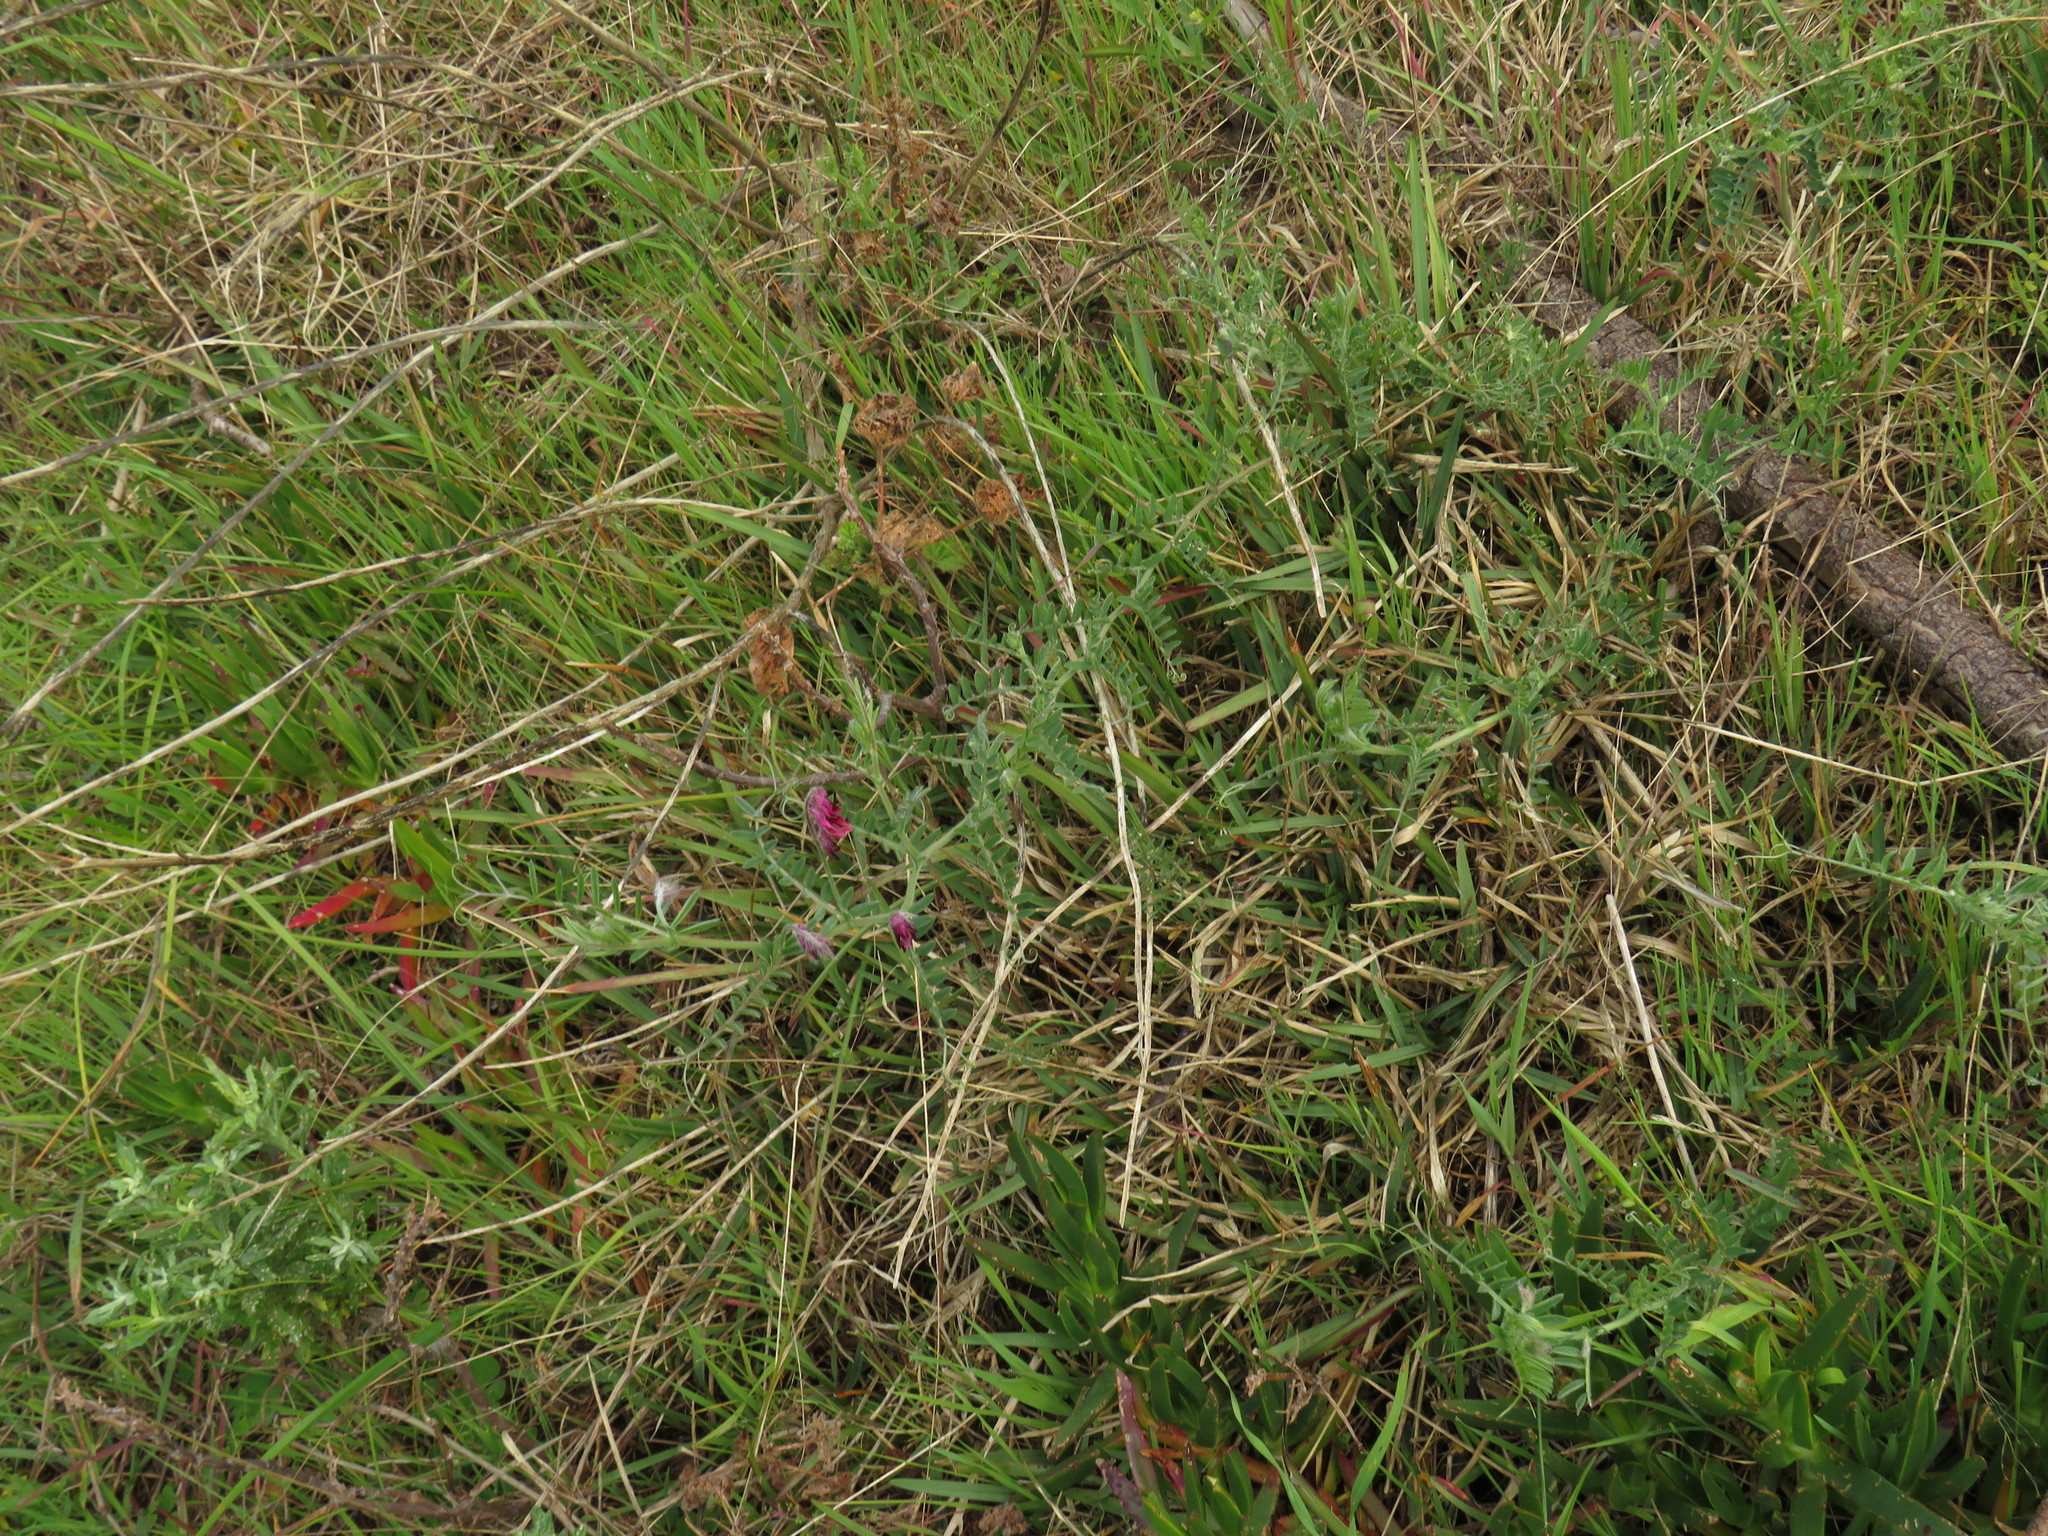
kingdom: Plantae
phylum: Tracheophyta
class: Magnoliopsida
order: Fabales
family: Fabaceae
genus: Vicia
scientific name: Vicia benghalensis
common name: Purple vetch
